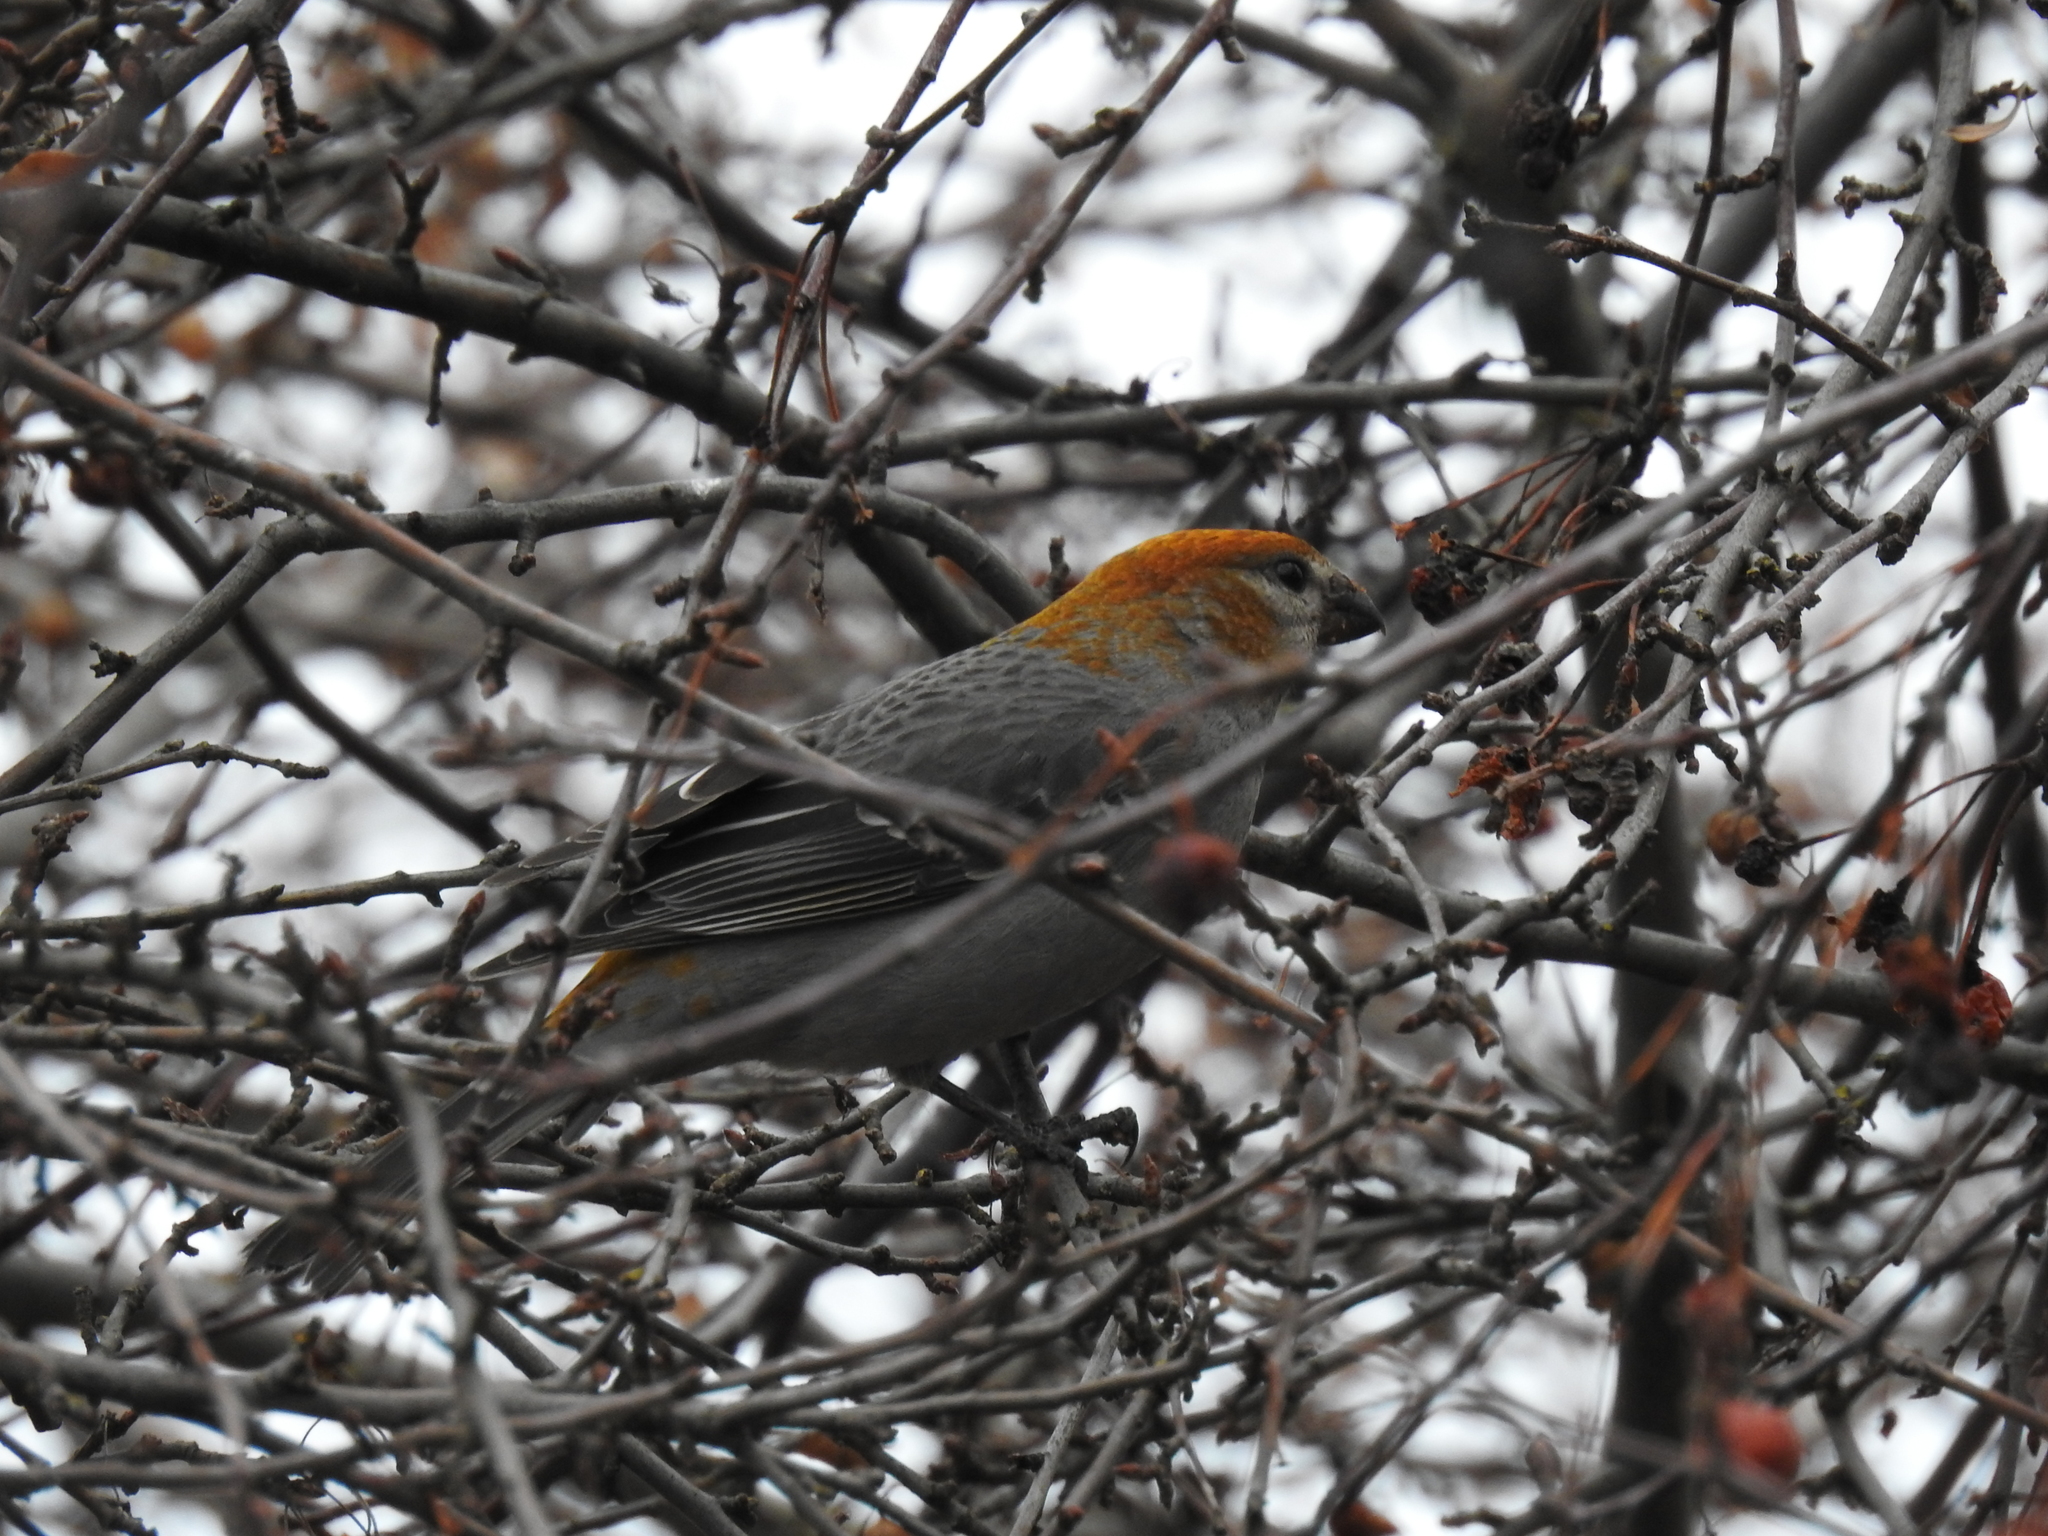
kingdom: Animalia
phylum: Chordata
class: Aves
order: Passeriformes
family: Fringillidae
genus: Pinicola
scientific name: Pinicola enucleator
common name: Pine grosbeak
